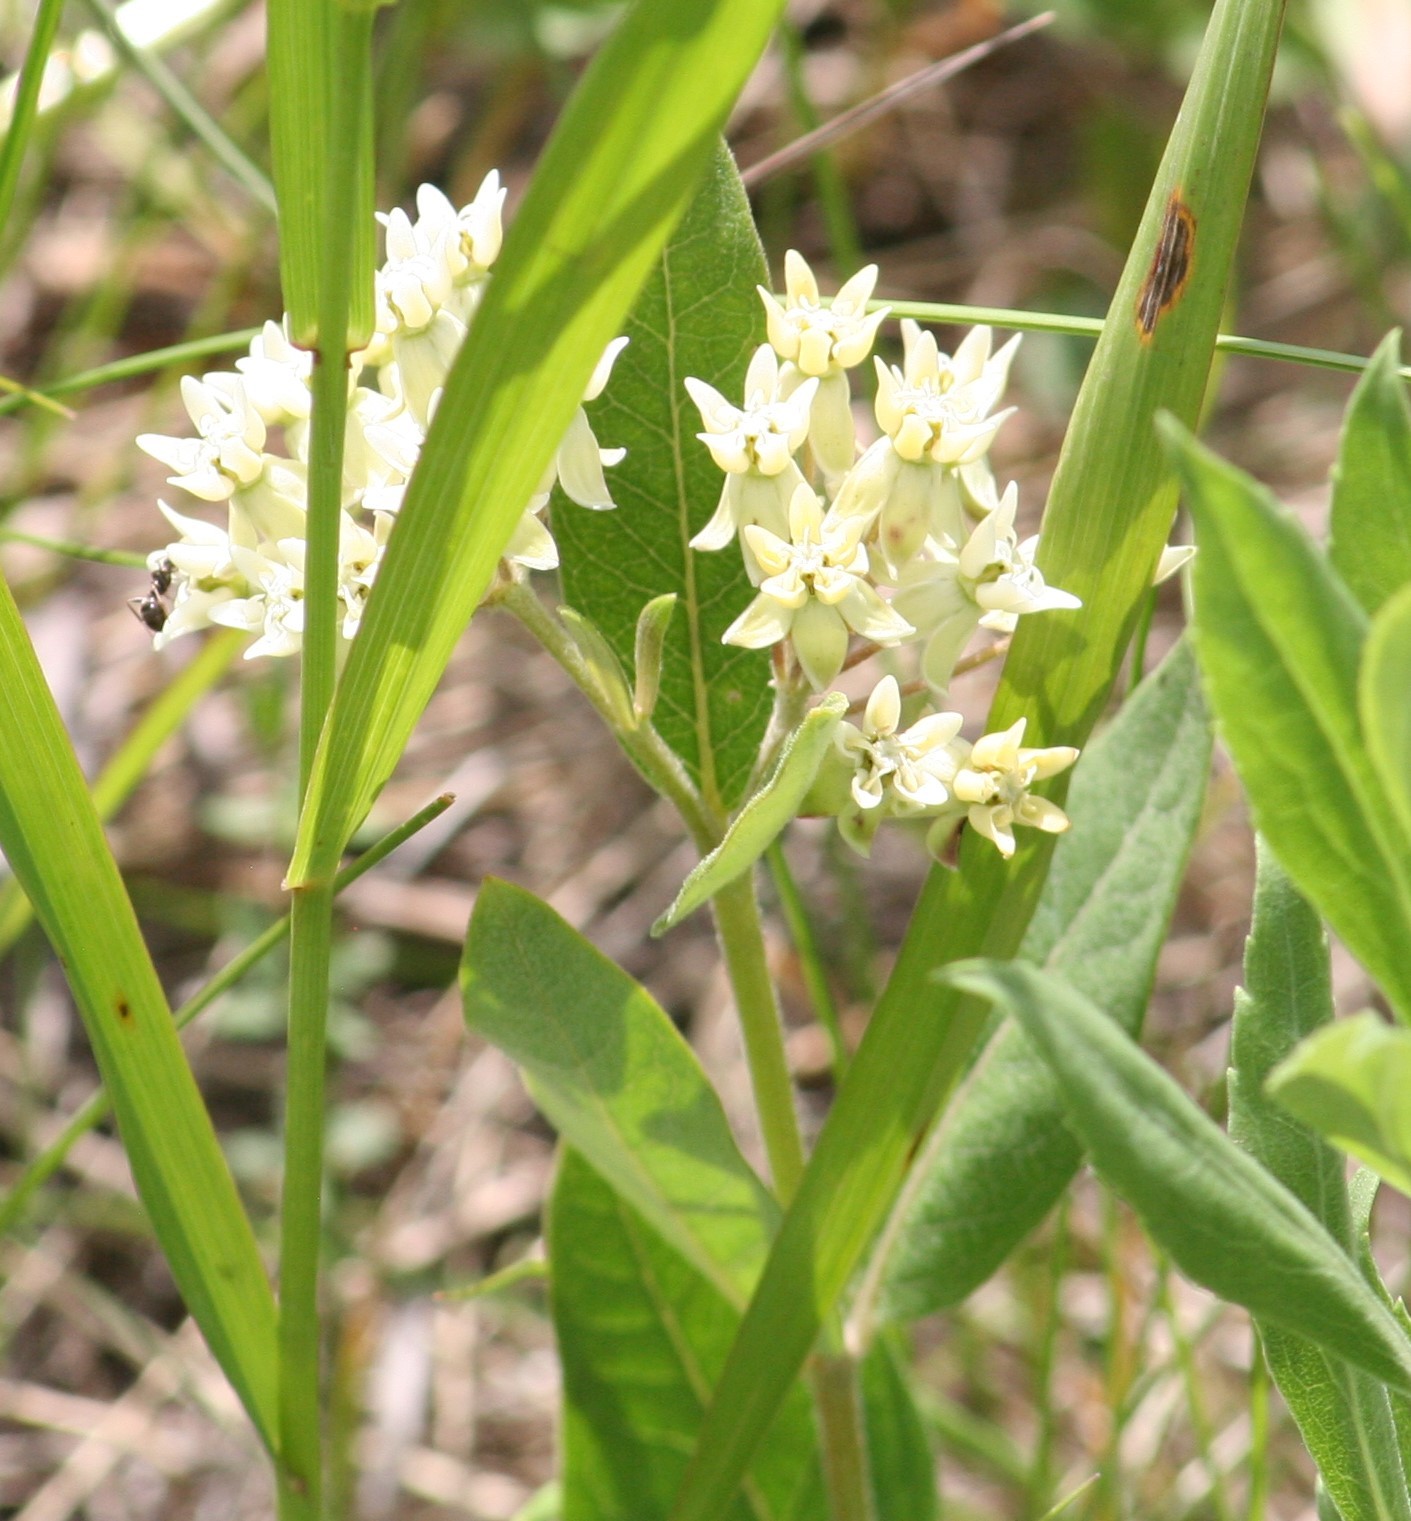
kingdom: Plantae
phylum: Tracheophyta
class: Magnoliopsida
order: Gentianales
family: Apocynaceae
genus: Asclepias
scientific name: Asclepias ovalifolia
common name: Dwarf milkweed
